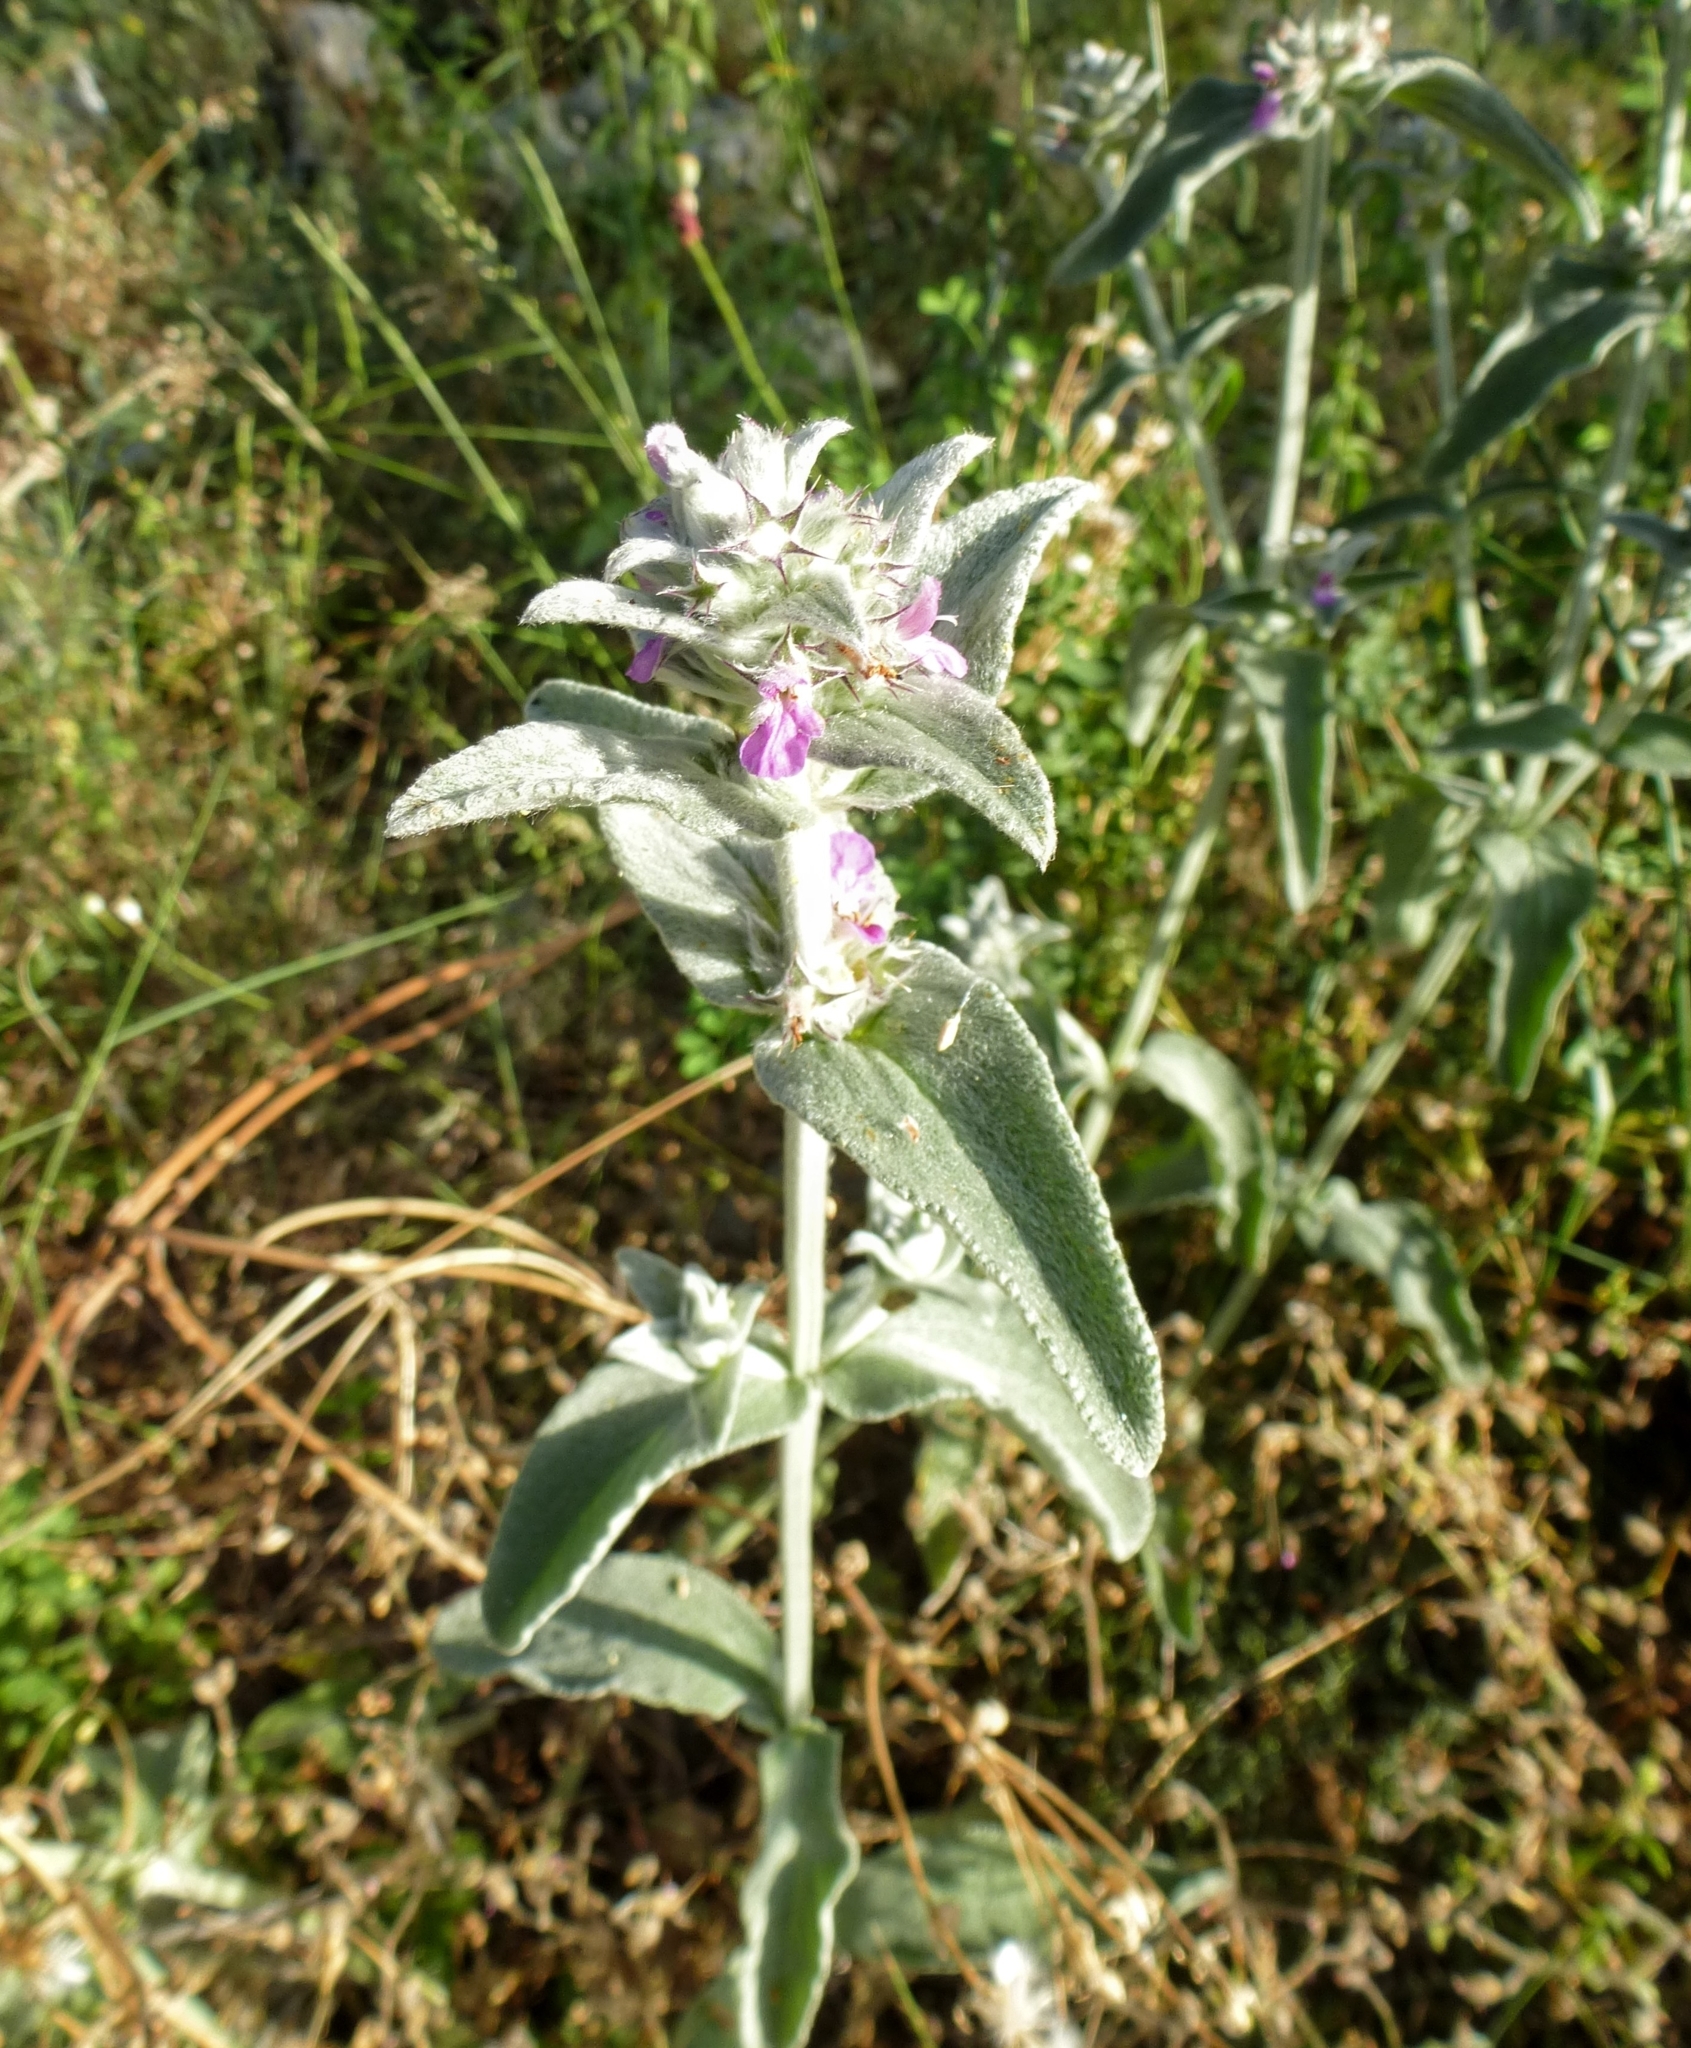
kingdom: Plantae
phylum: Tracheophyta
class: Magnoliopsida
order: Lamiales
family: Lamiaceae
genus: Stachys
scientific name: Stachys cretica
